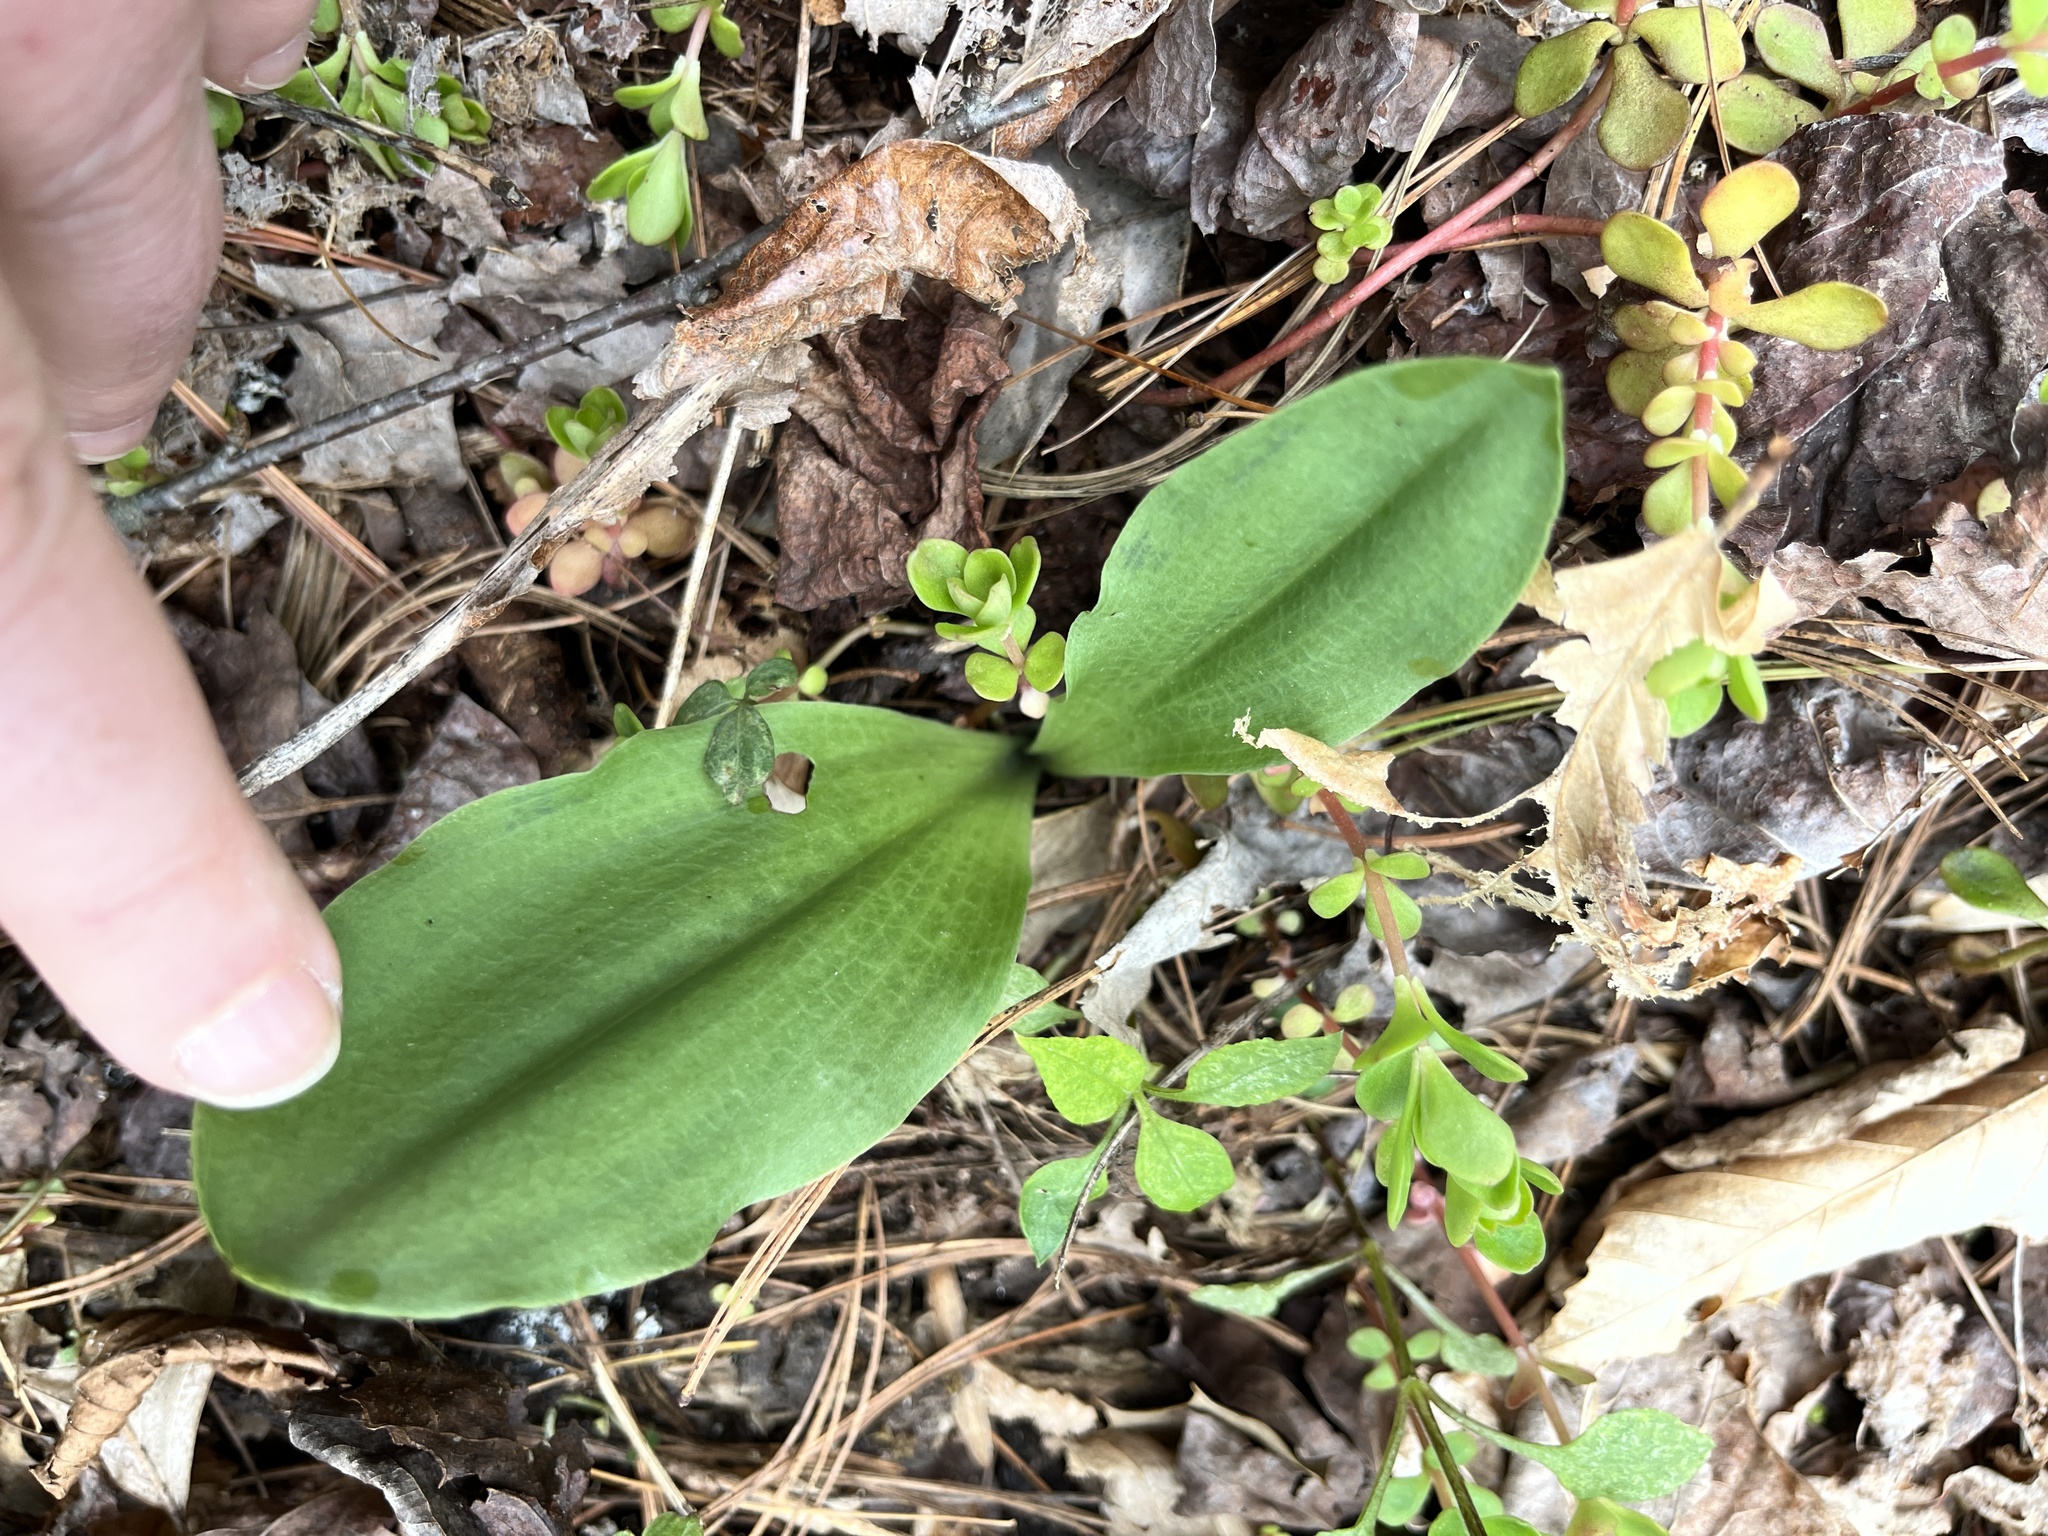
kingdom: Plantae
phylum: Tracheophyta
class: Liliopsida
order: Asparagales
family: Orchidaceae
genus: Galearis
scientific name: Galearis spectabilis
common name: Purple-hooded orchis
